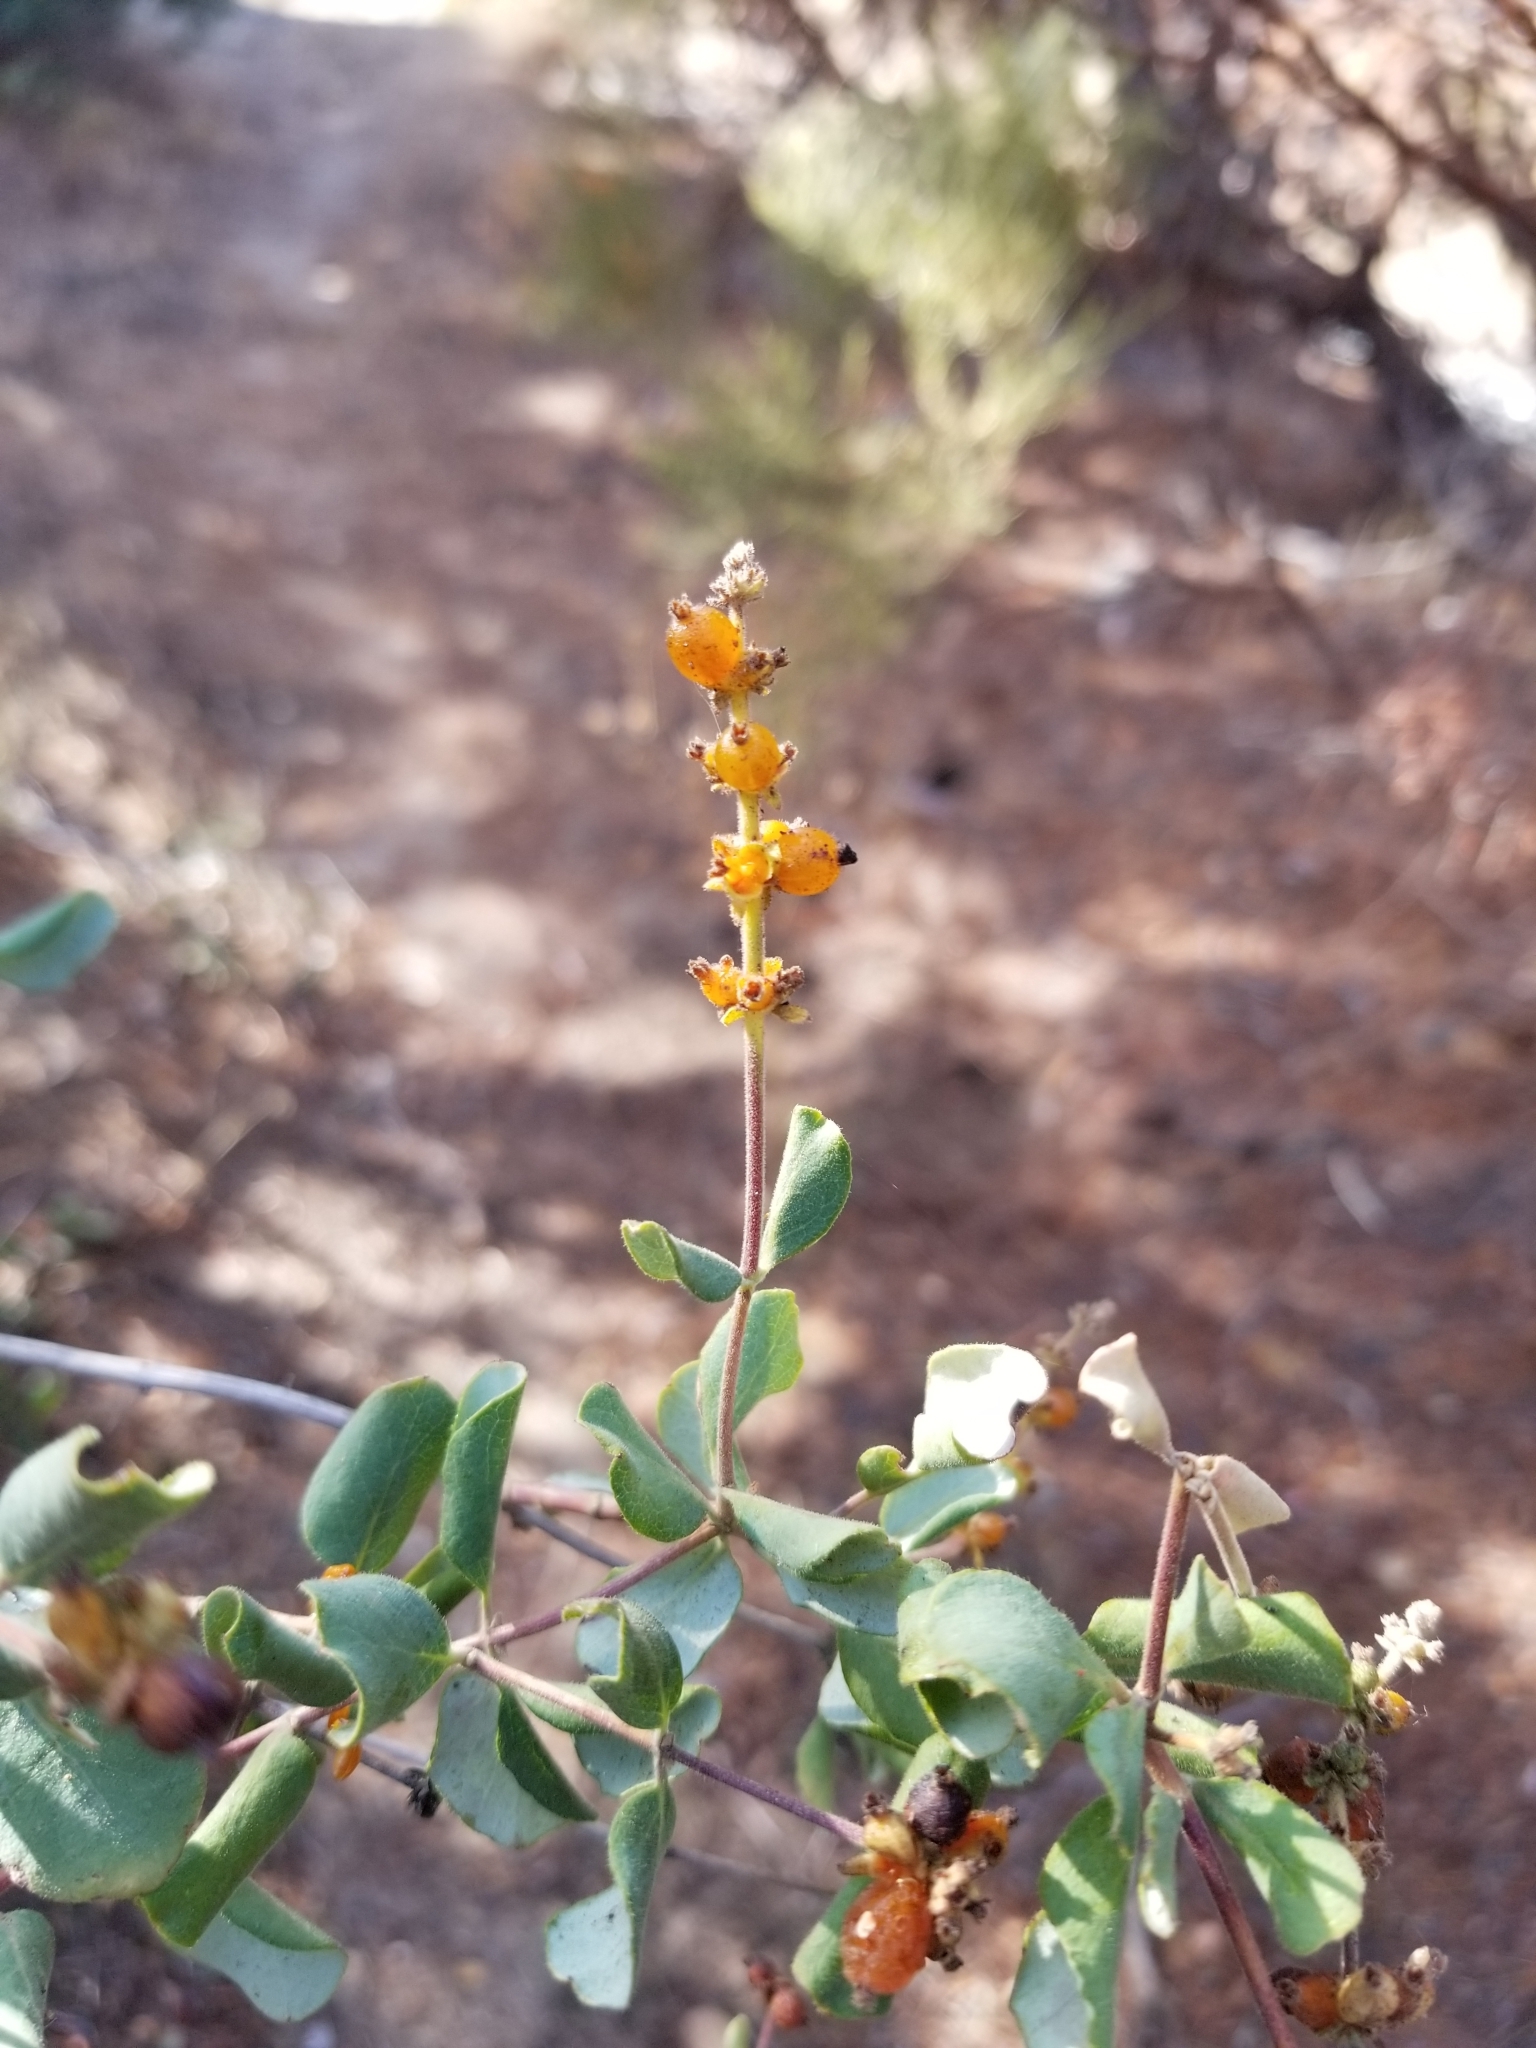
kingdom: Plantae
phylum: Tracheophyta
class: Magnoliopsida
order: Dipsacales
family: Caprifoliaceae
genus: Lonicera
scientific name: Lonicera subspicata
